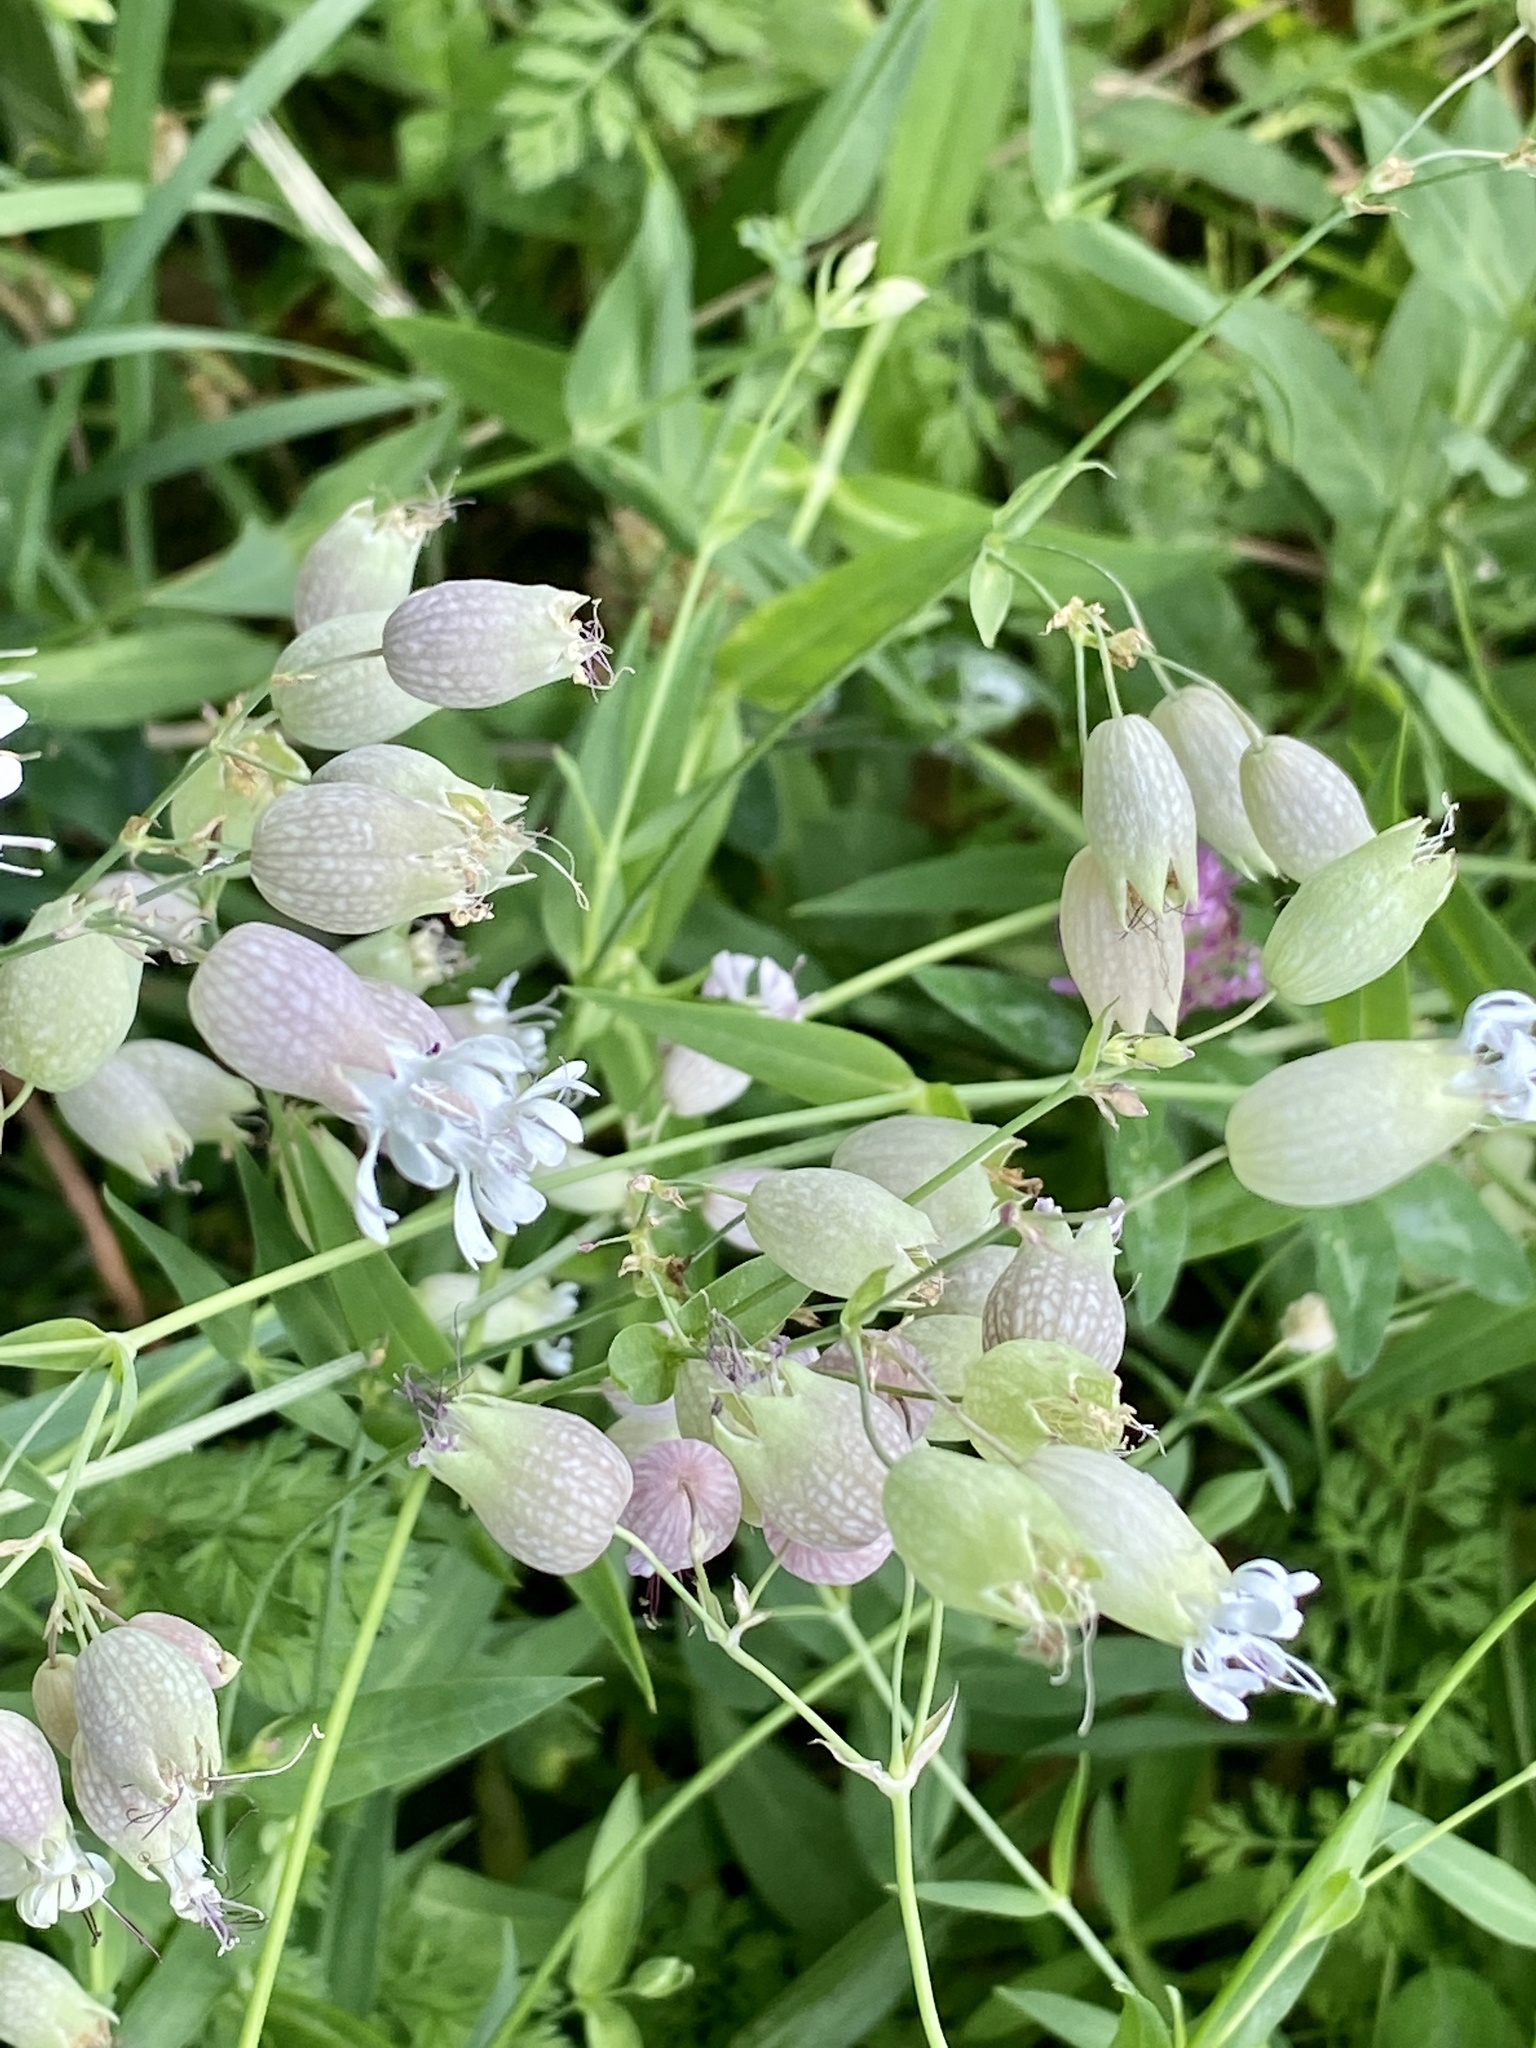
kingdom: Plantae
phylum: Tracheophyta
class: Magnoliopsida
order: Caryophyllales
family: Caryophyllaceae
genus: Silene
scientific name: Silene vulgaris
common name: Bladder campion
